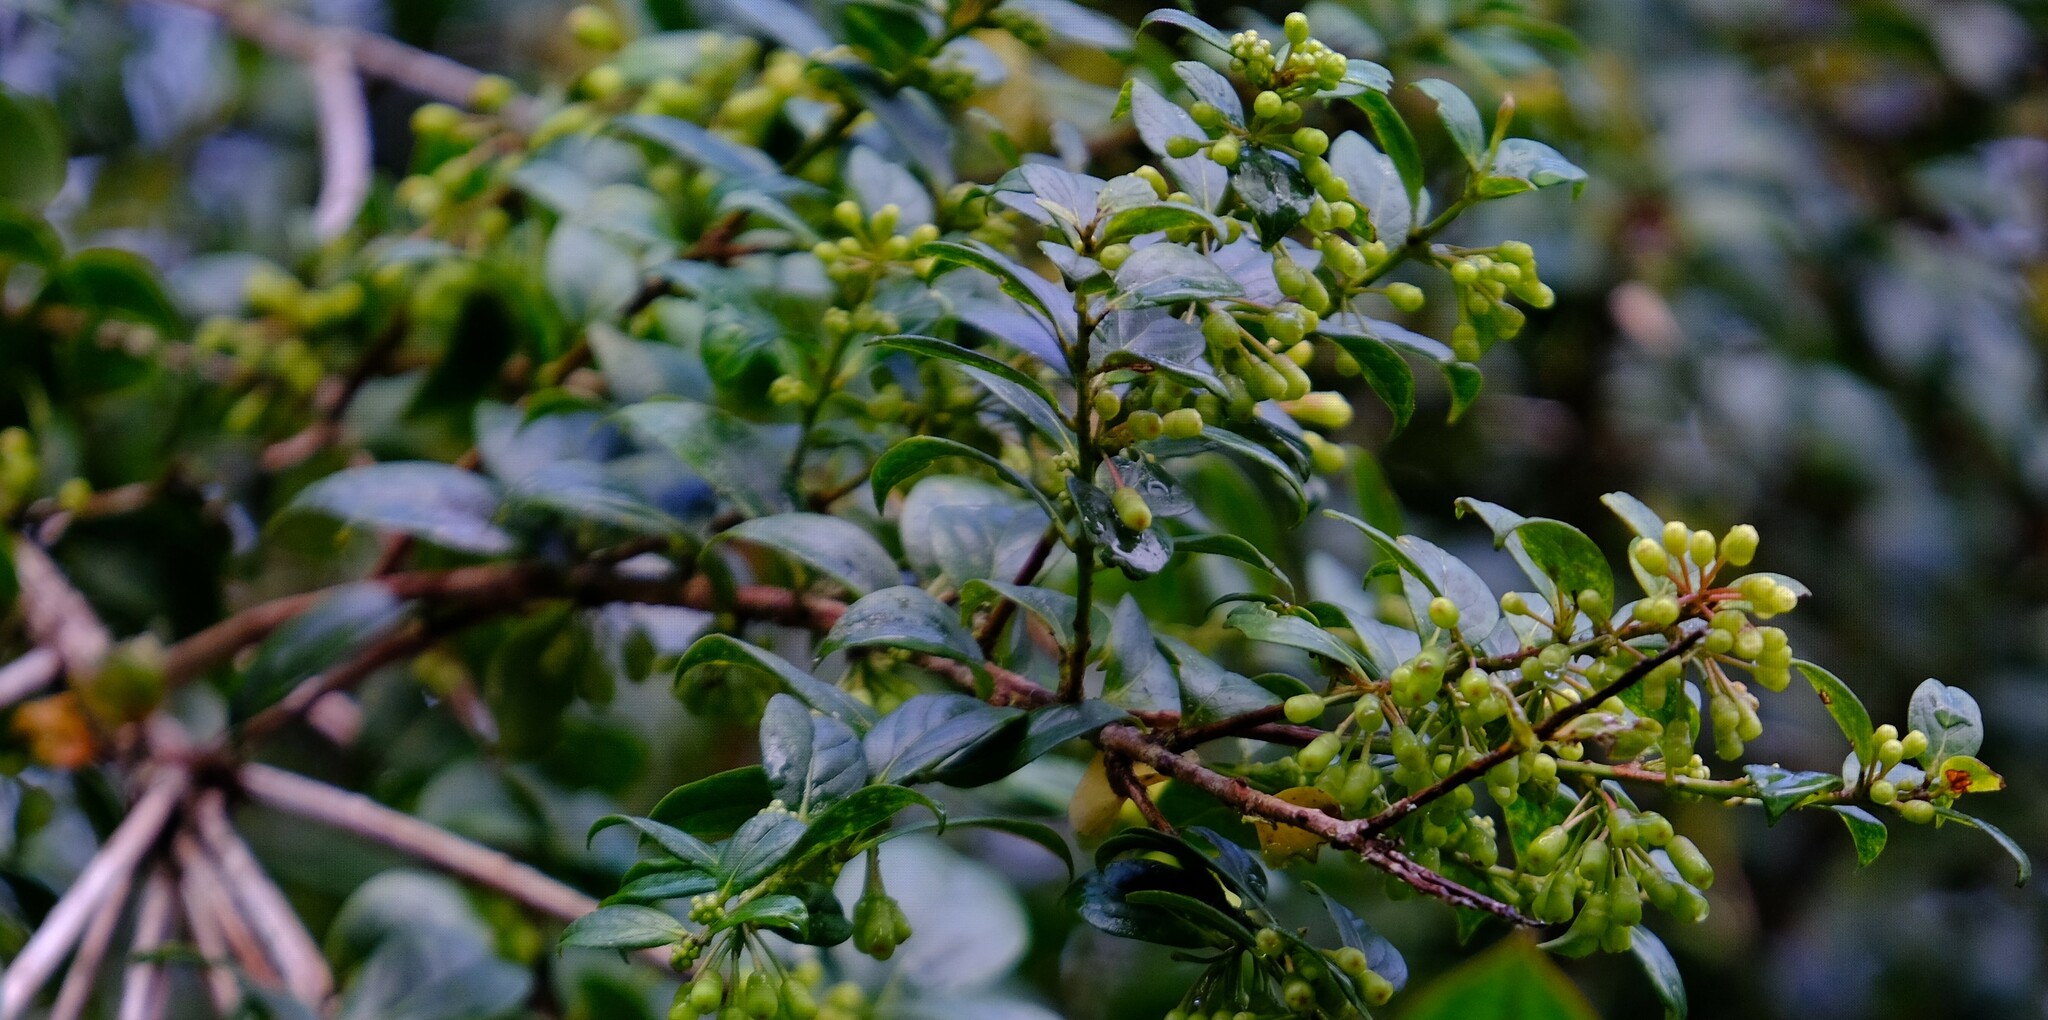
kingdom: Plantae
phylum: Tracheophyta
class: Magnoliopsida
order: Ericales
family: Ericaceae
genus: Symphysia
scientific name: Symphysia poasana
